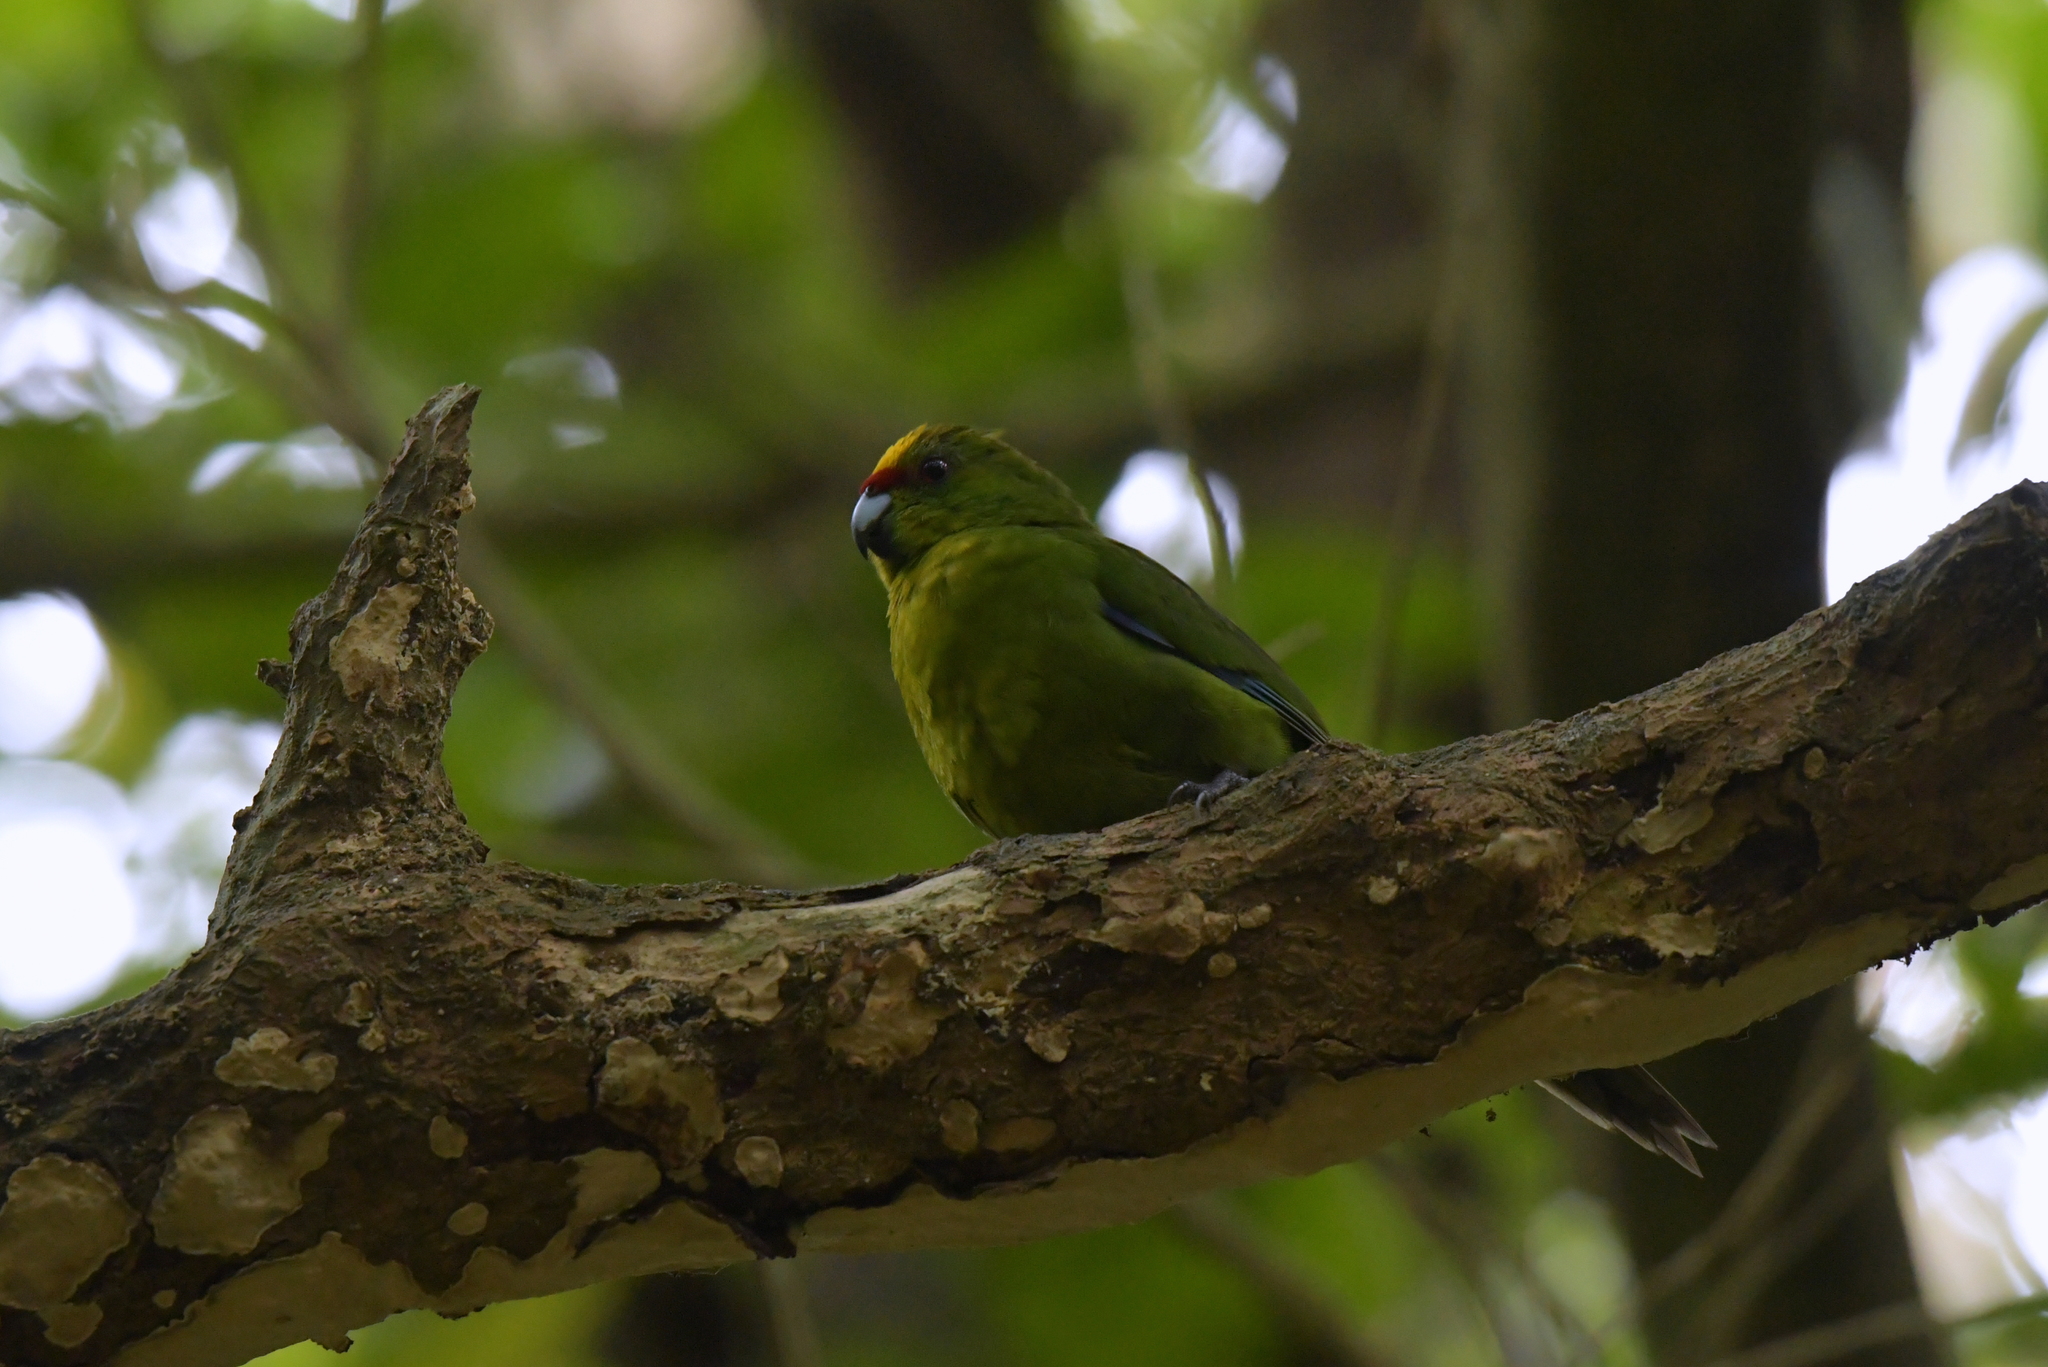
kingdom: Animalia
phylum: Chordata
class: Aves
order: Psittaciformes
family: Psittacidae
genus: Cyanoramphus
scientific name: Cyanoramphus auriceps
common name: Yellow-crowned parakeet
